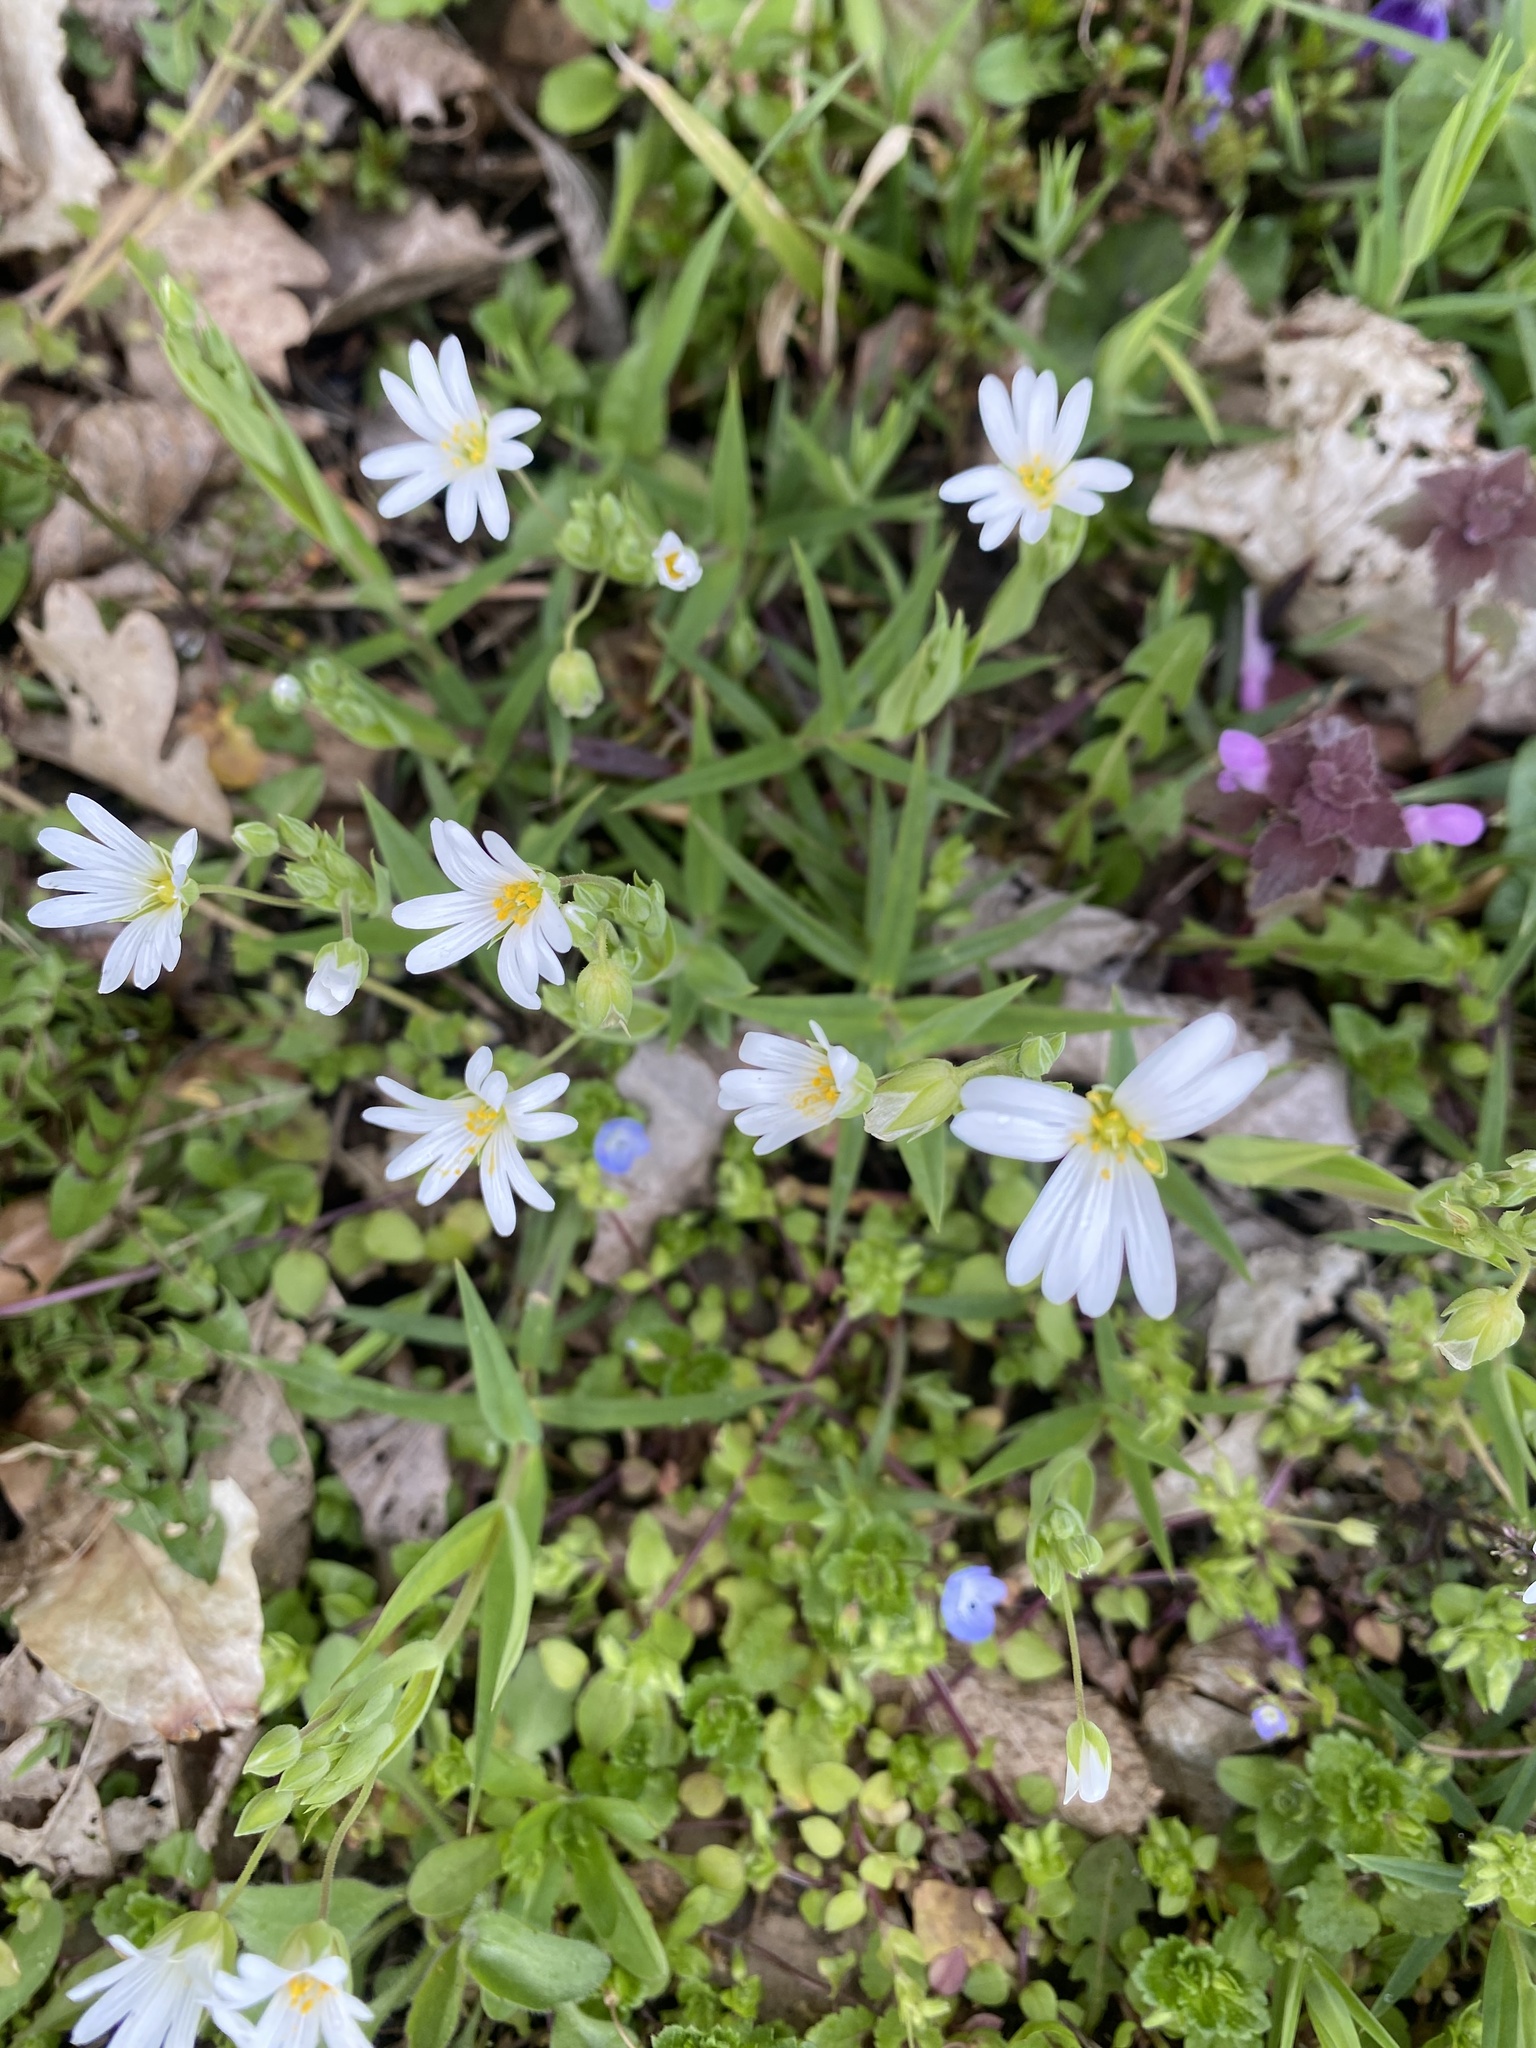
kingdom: Plantae
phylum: Tracheophyta
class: Magnoliopsida
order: Caryophyllales
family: Caryophyllaceae
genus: Rabelera
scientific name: Rabelera holostea
